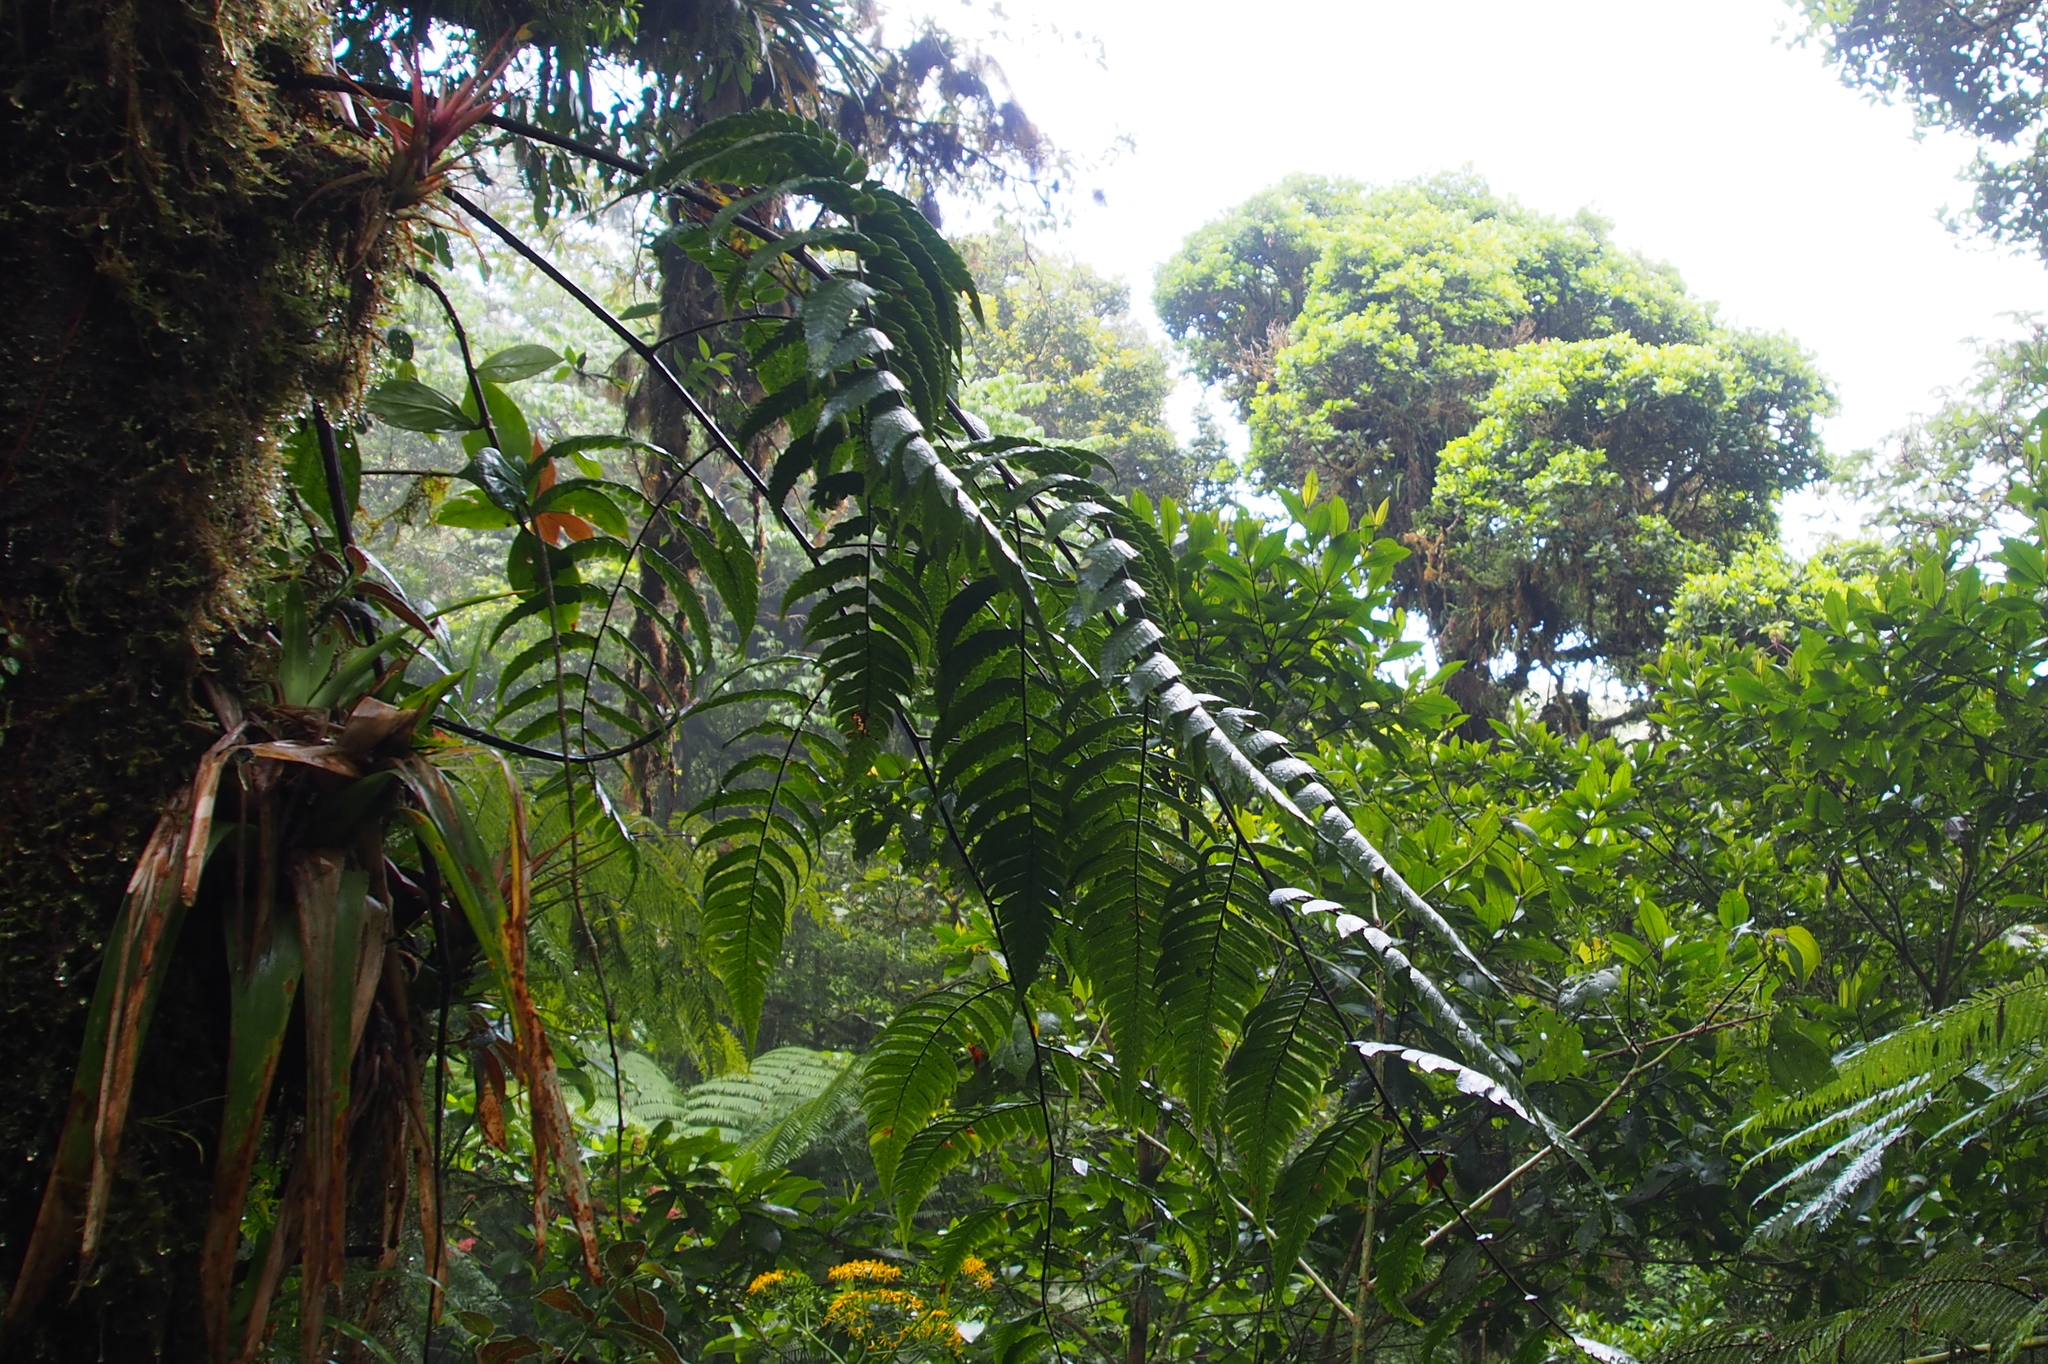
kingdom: Plantae
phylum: Tracheophyta
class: Polypodiopsida
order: Cyatheales
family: Cyatheaceae
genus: Cyathea
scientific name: Cyathea gracilis
